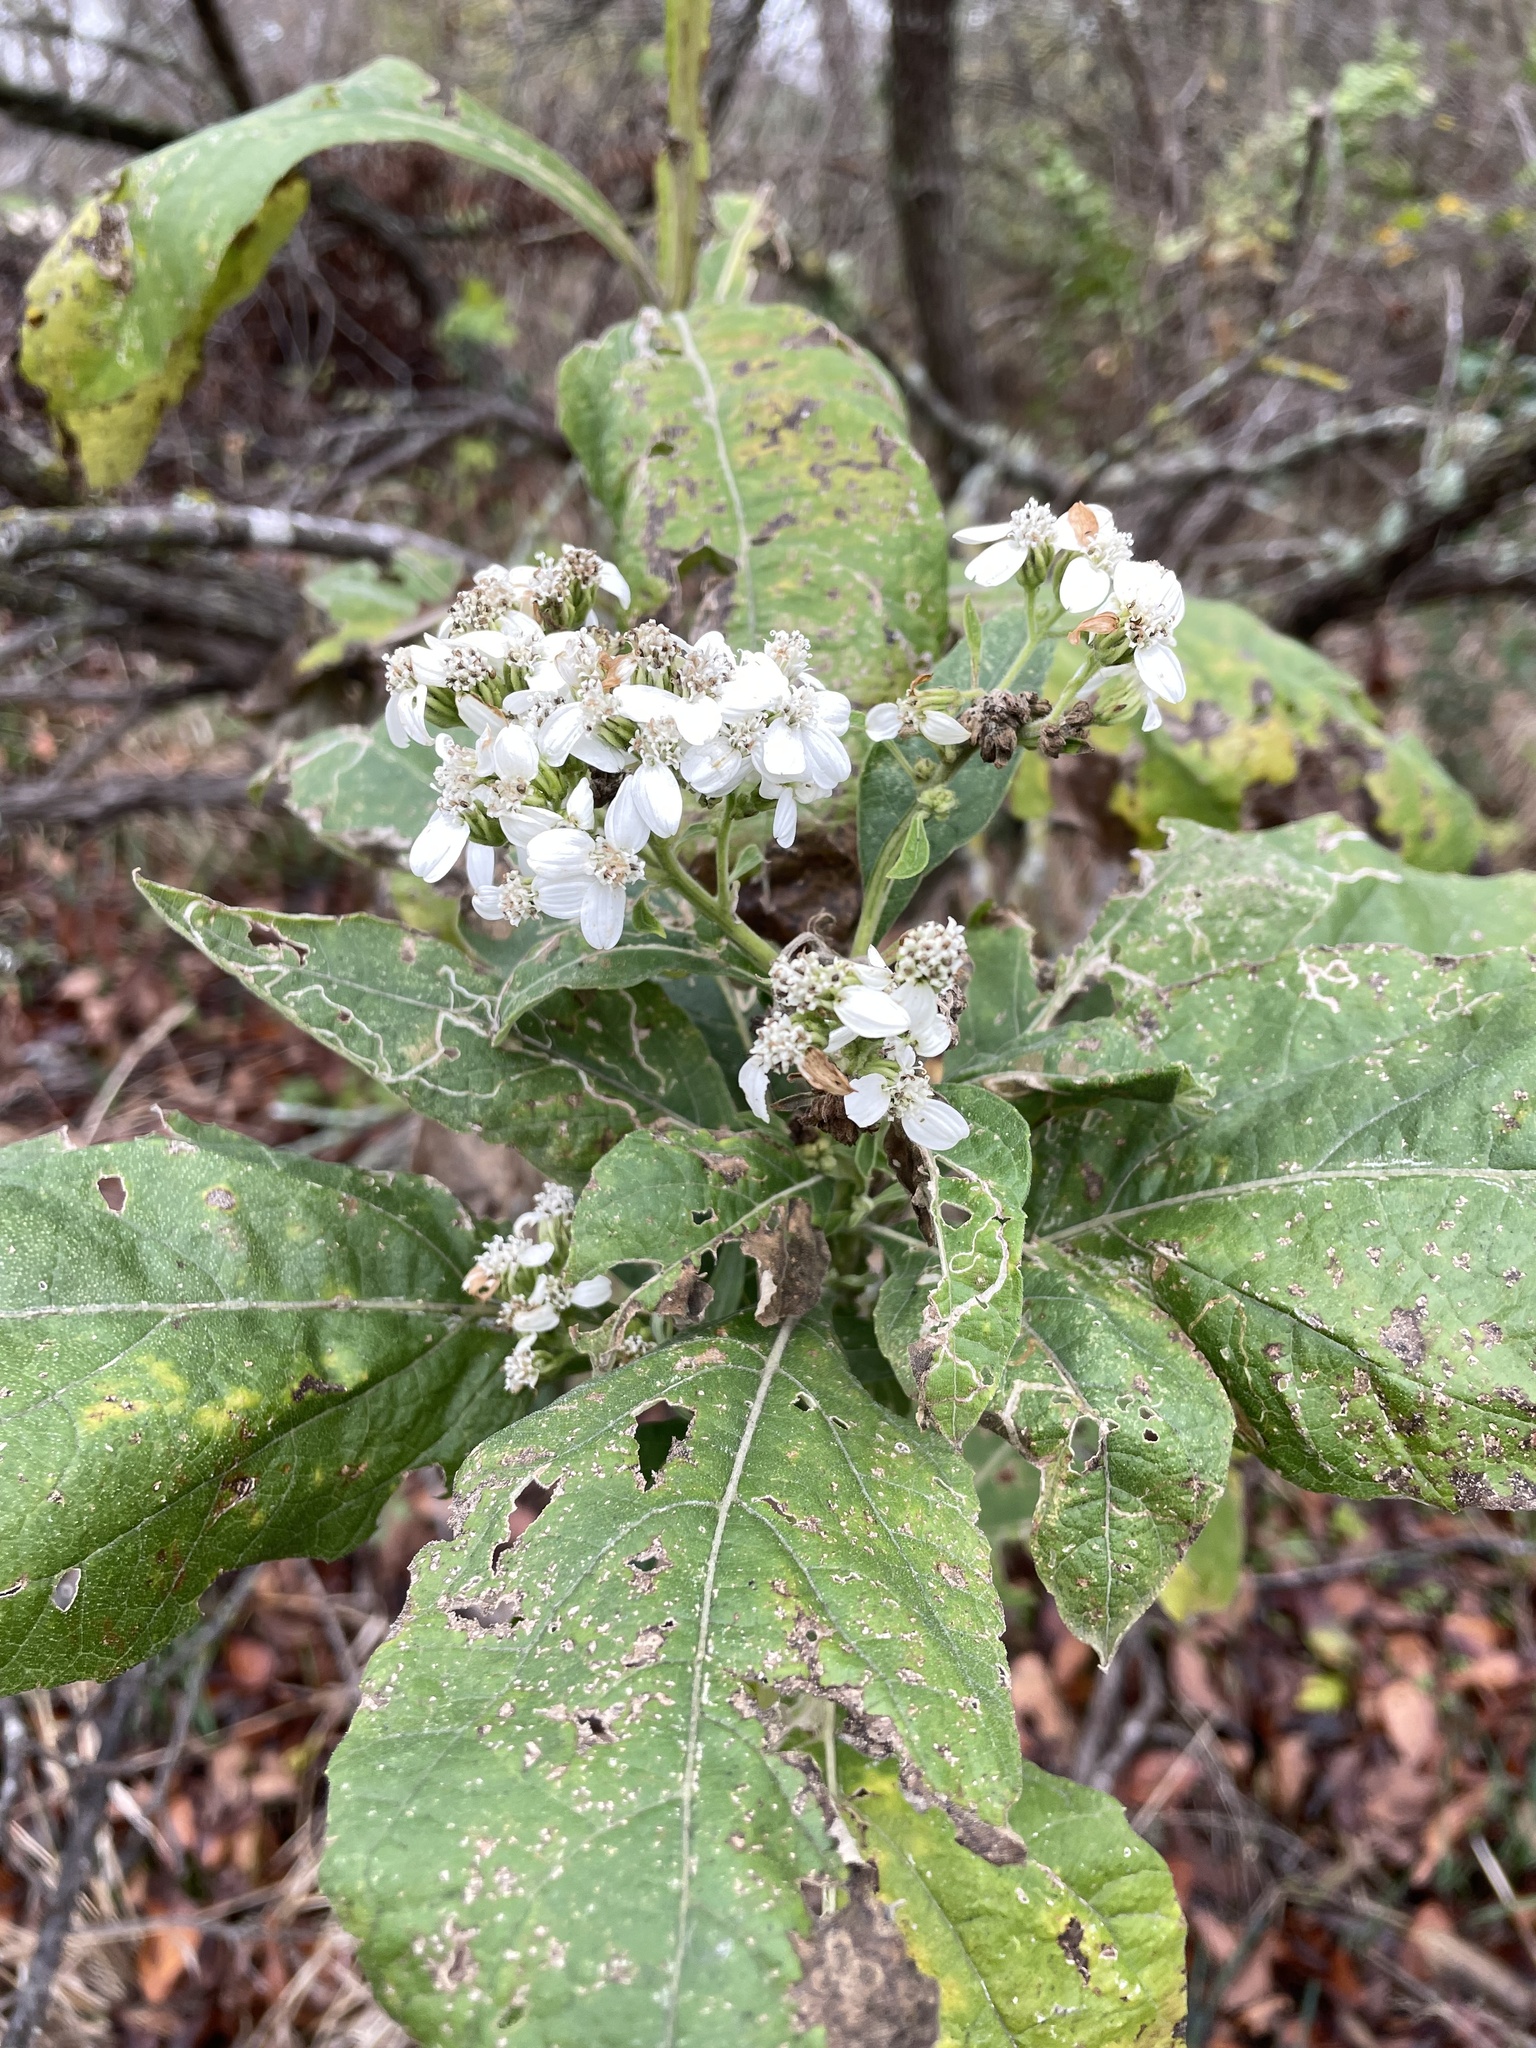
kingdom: Plantae
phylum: Tracheophyta
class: Magnoliopsida
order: Asterales
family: Asteraceae
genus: Verbesina
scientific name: Verbesina virginica
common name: Frostweed
